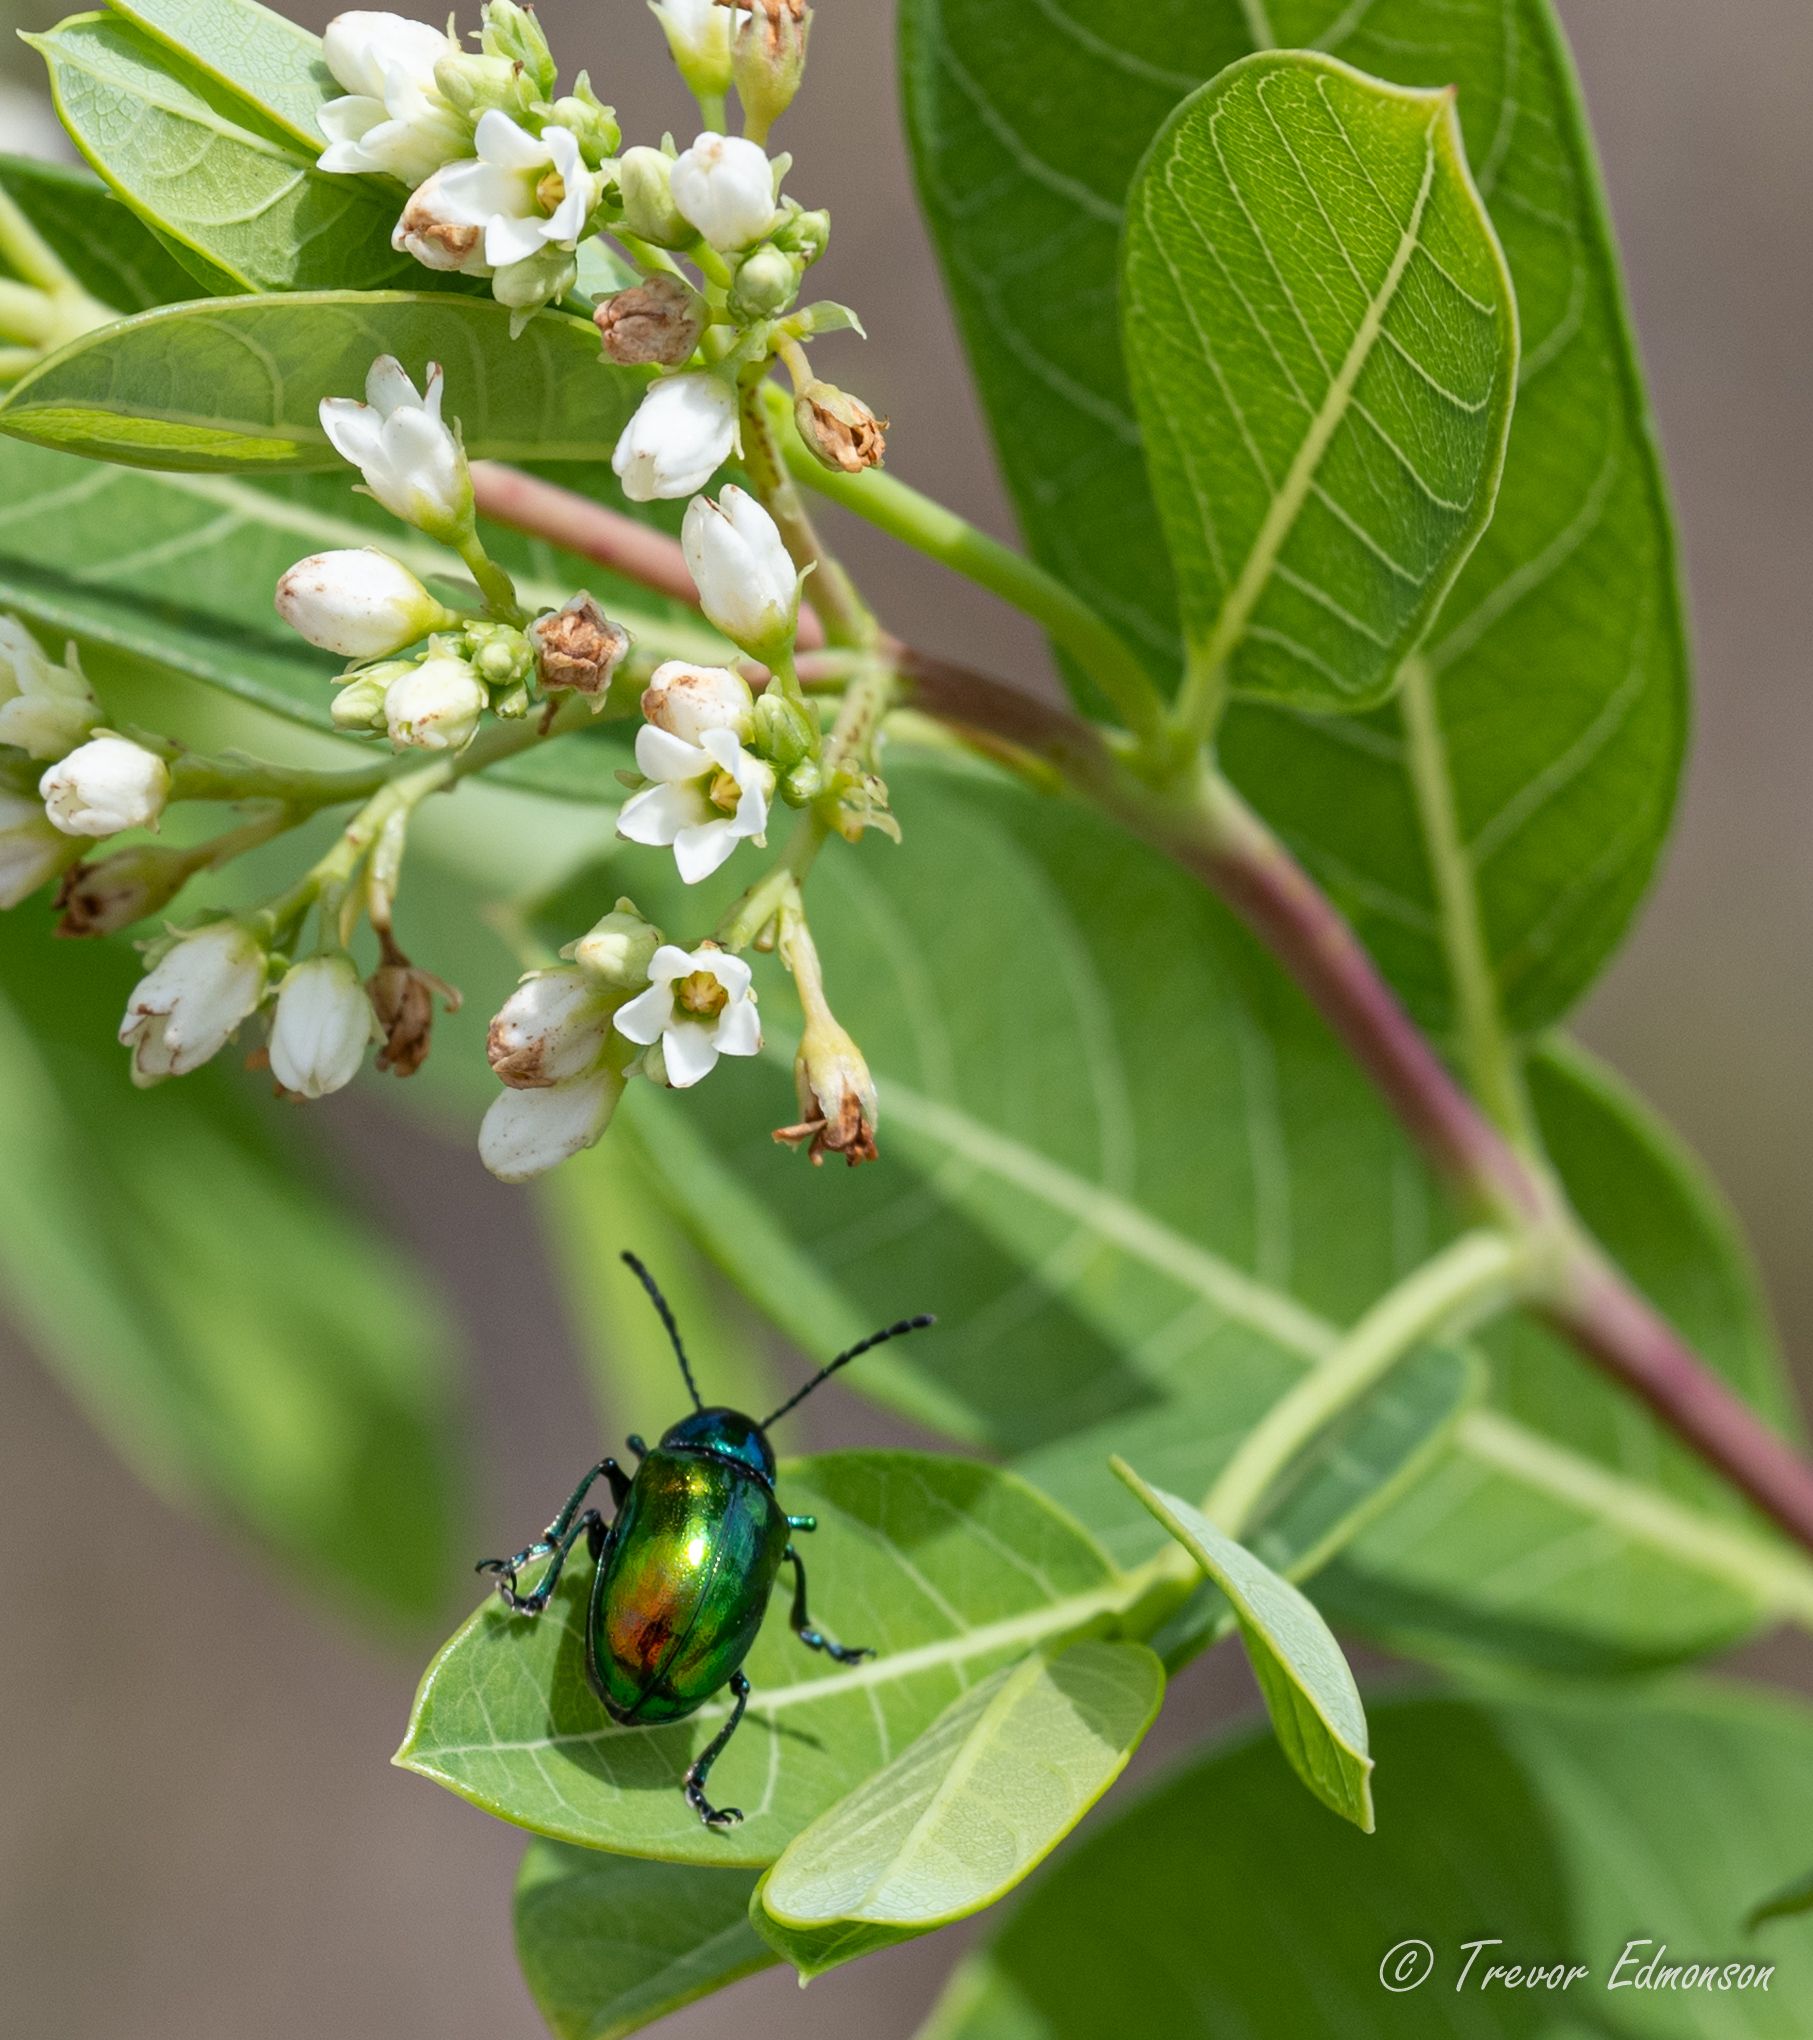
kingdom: Animalia
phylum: Arthropoda
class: Insecta
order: Coleoptera
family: Chrysomelidae
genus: Chrysochus
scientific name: Chrysochus auratus
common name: Dogbane leaf beetle
